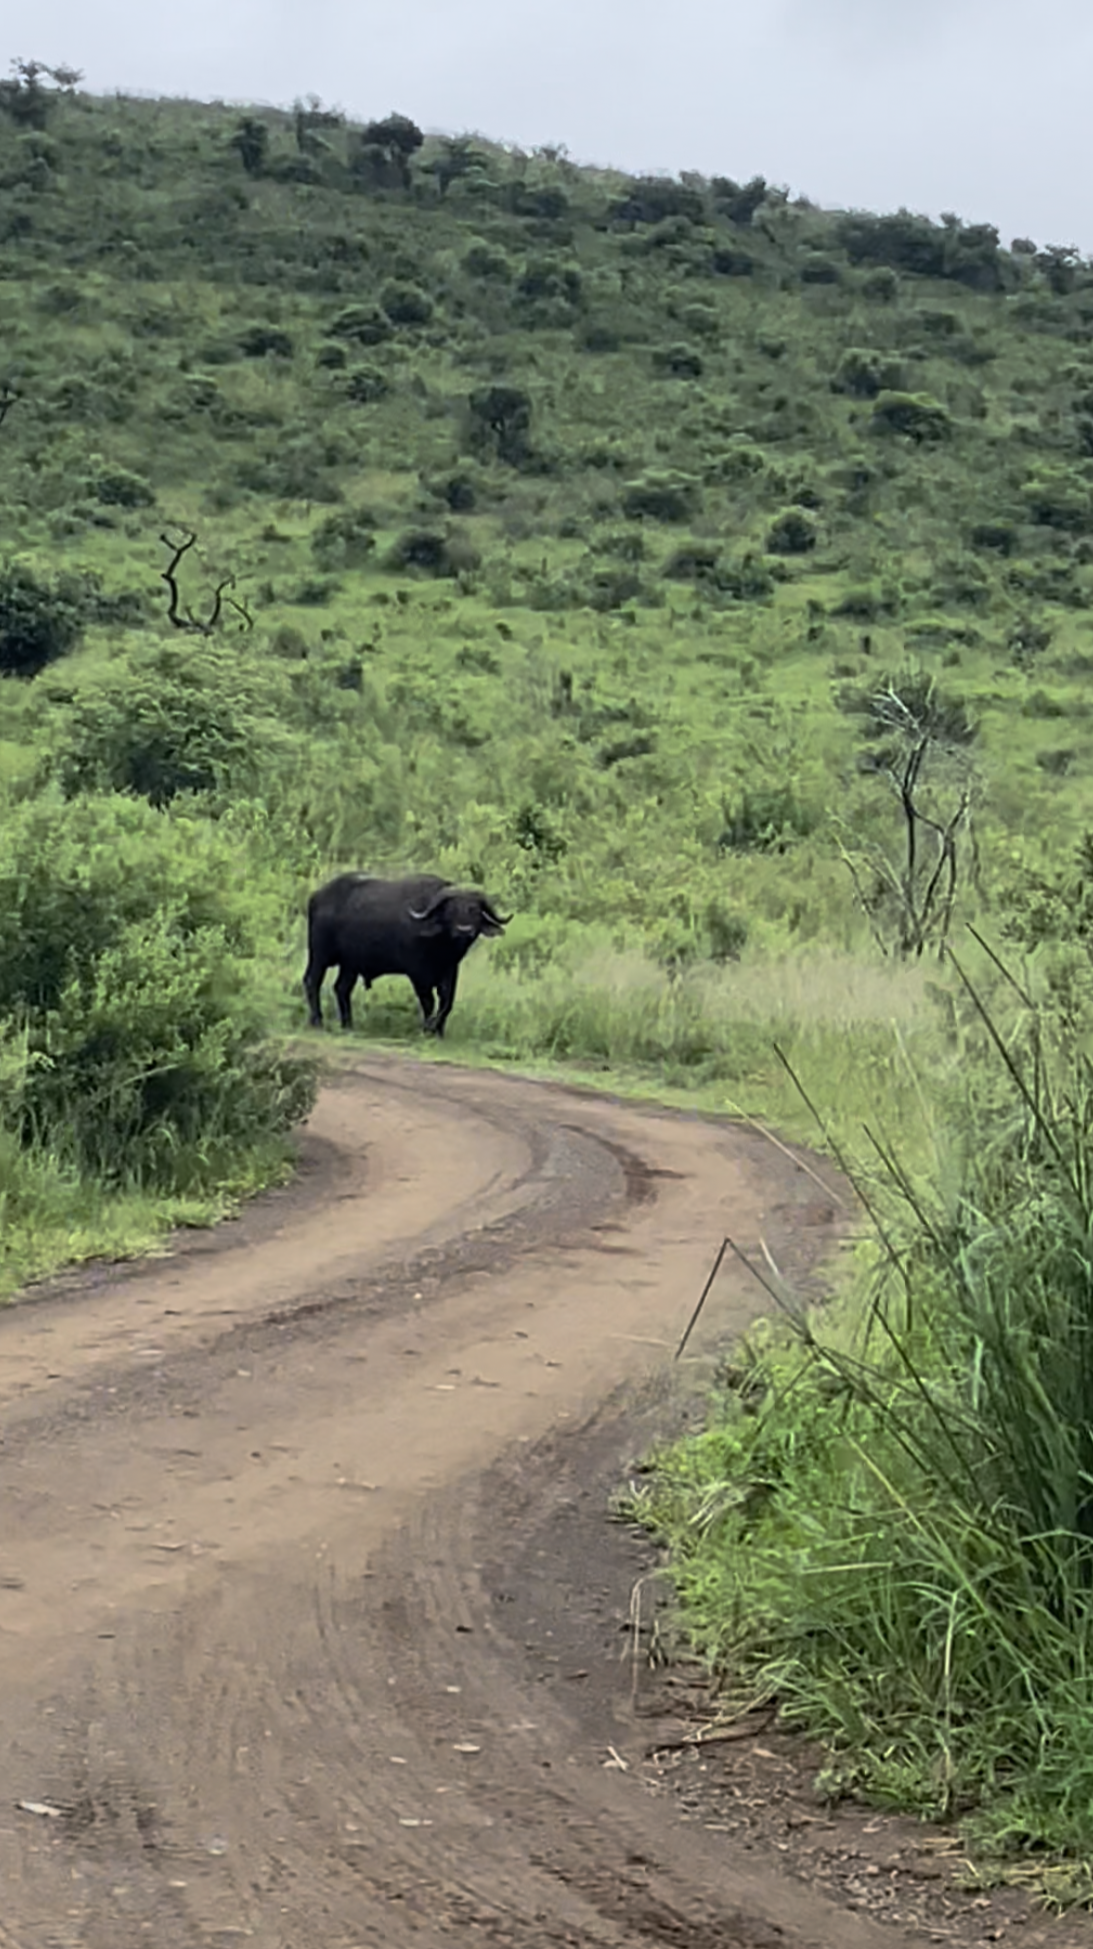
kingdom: Animalia
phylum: Chordata
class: Mammalia
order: Artiodactyla
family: Bovidae
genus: Syncerus
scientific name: Syncerus caffer
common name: African buffalo
